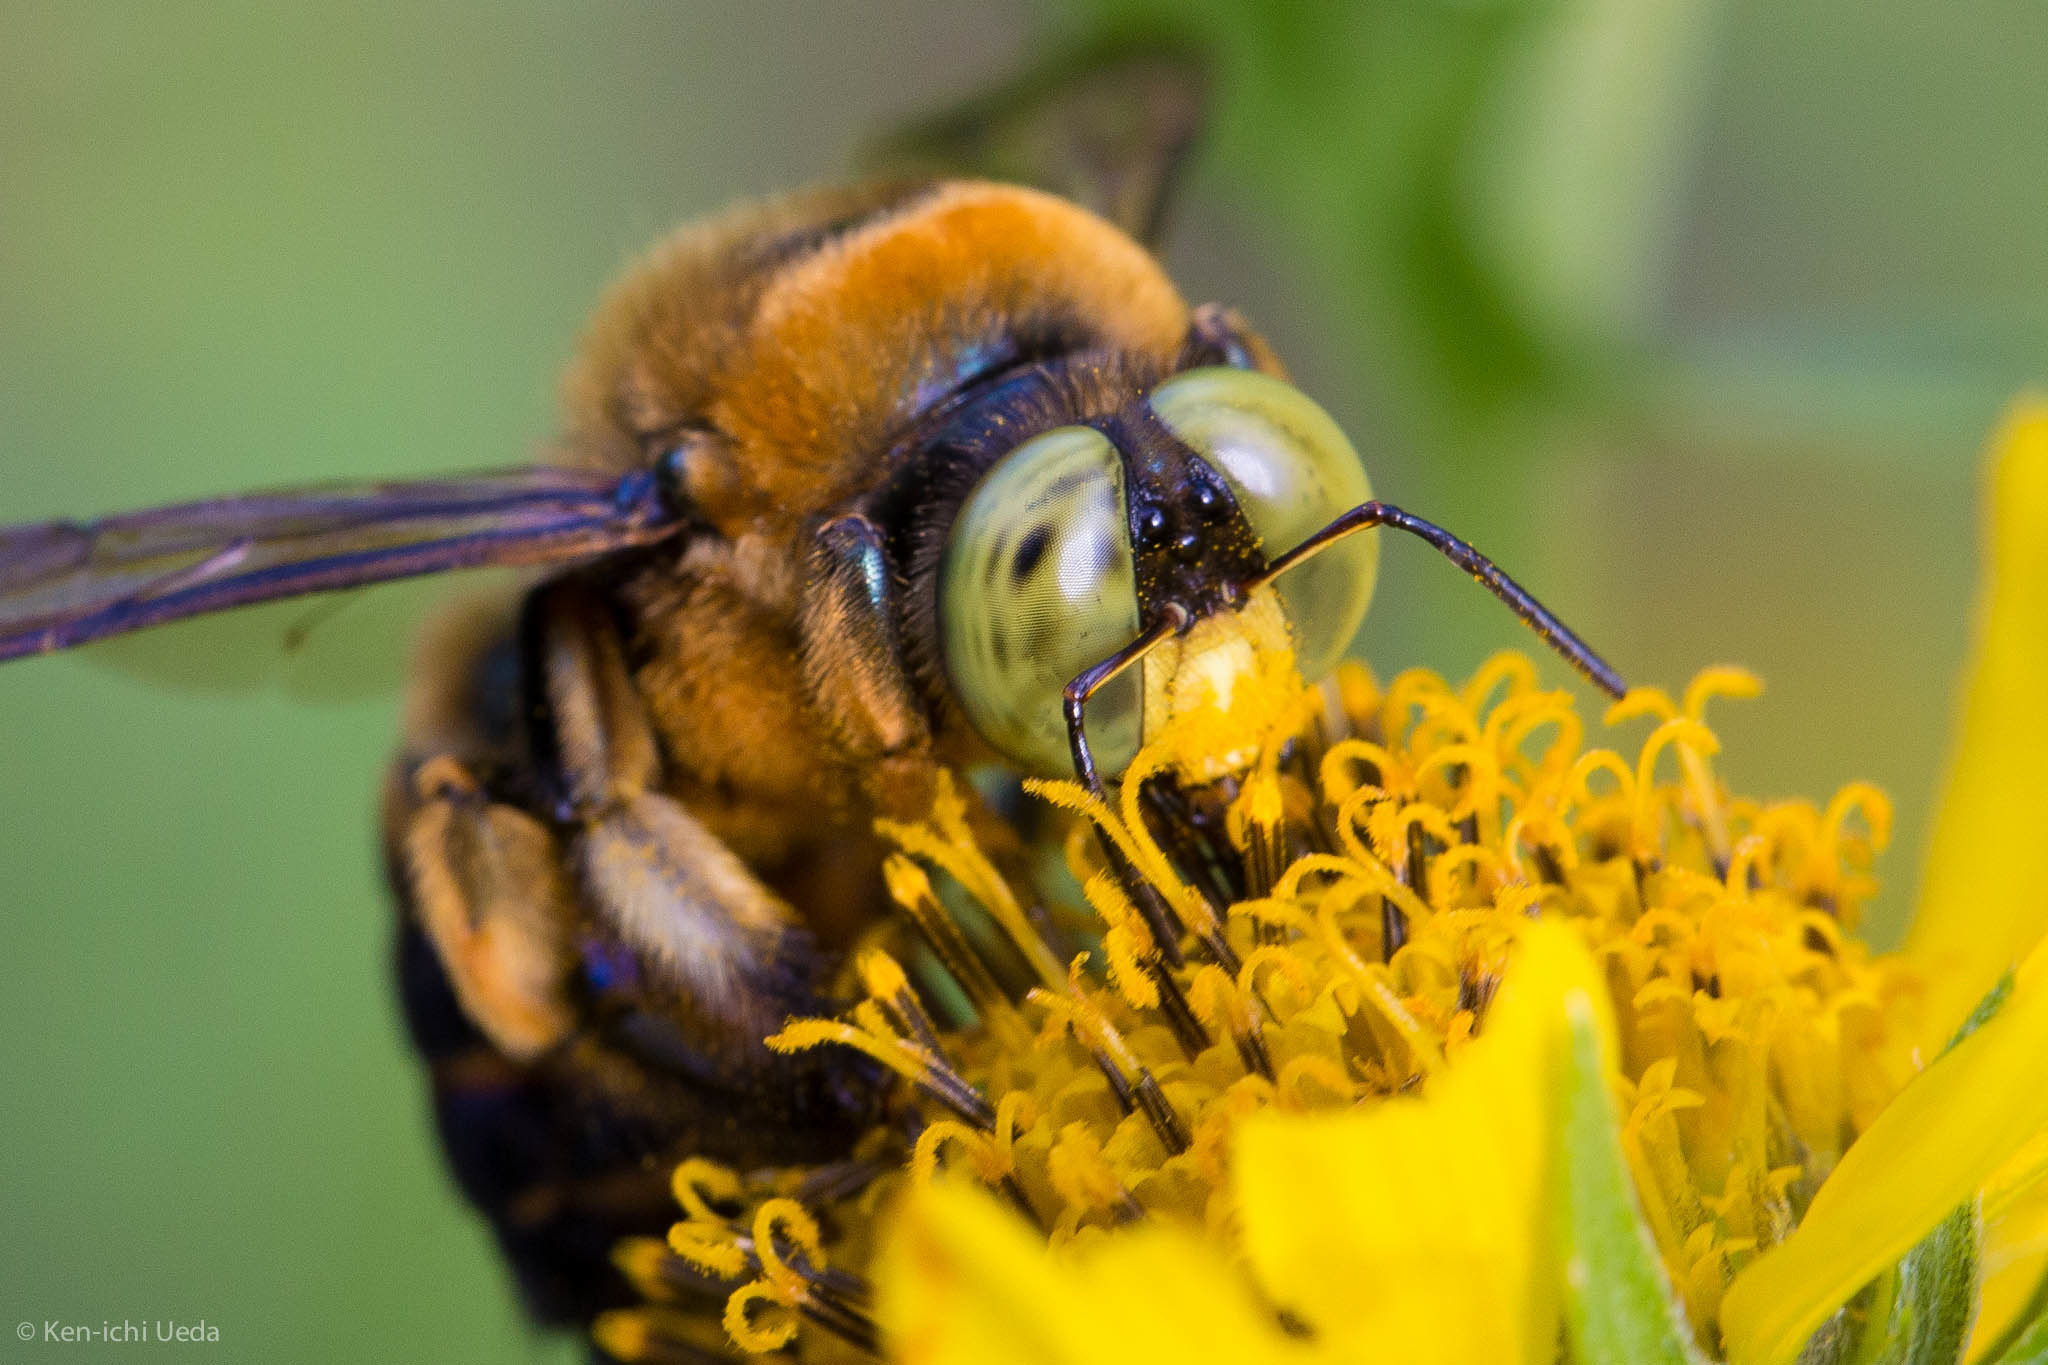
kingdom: Animalia
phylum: Arthropoda
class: Insecta
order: Hymenoptera
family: Apidae
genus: Xylocopa
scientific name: Xylocopa micans
